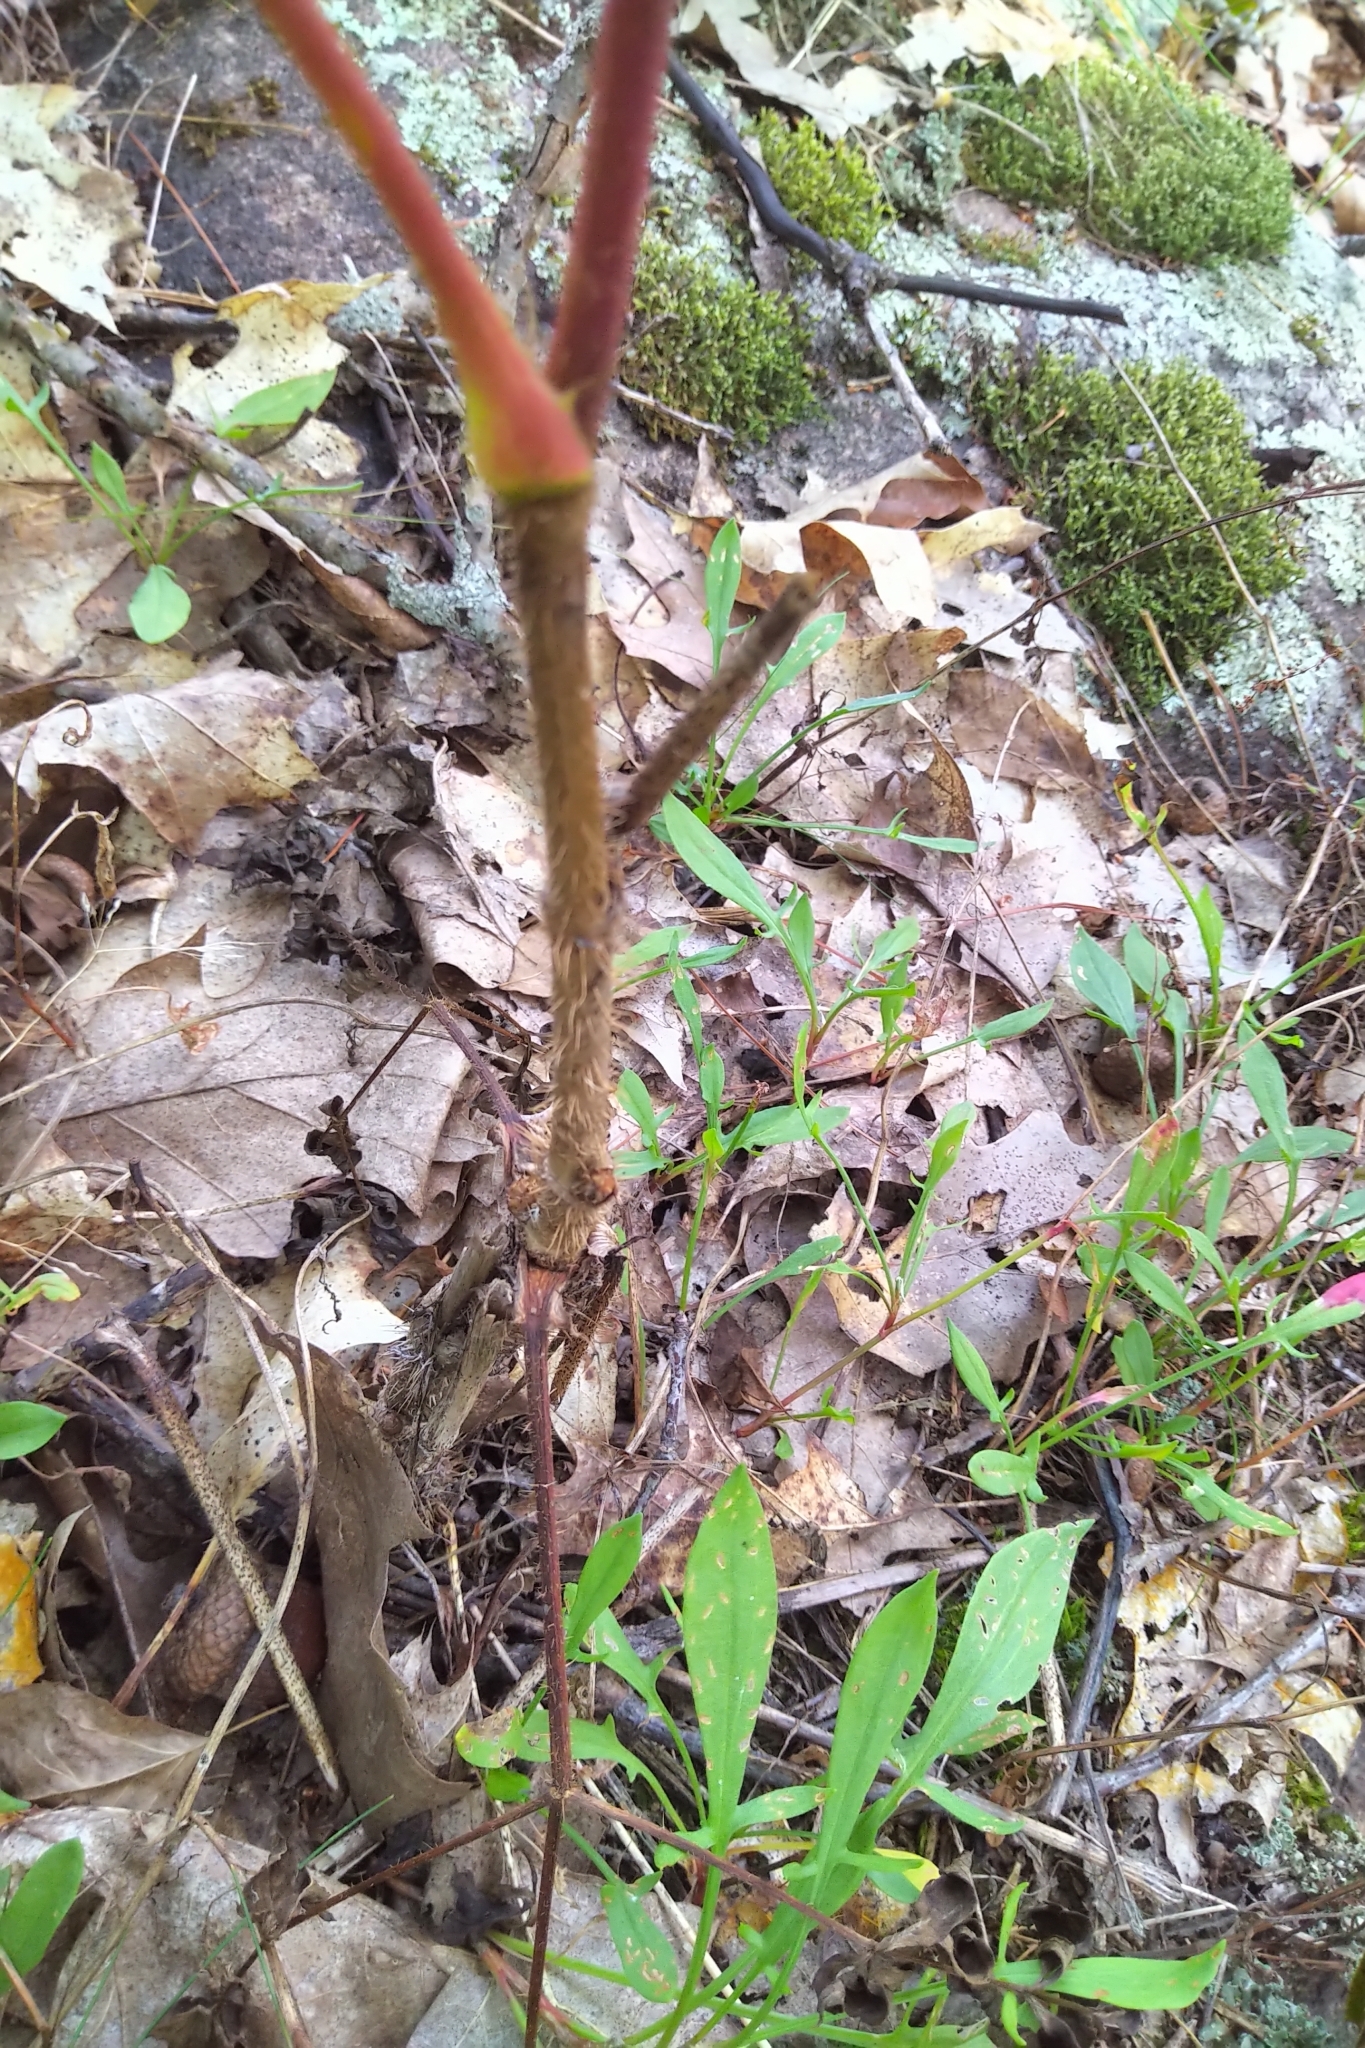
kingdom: Plantae
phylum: Tracheophyta
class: Magnoliopsida
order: Apiales
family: Araliaceae
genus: Aralia
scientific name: Aralia hispida
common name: Bristly sarsaparilla
